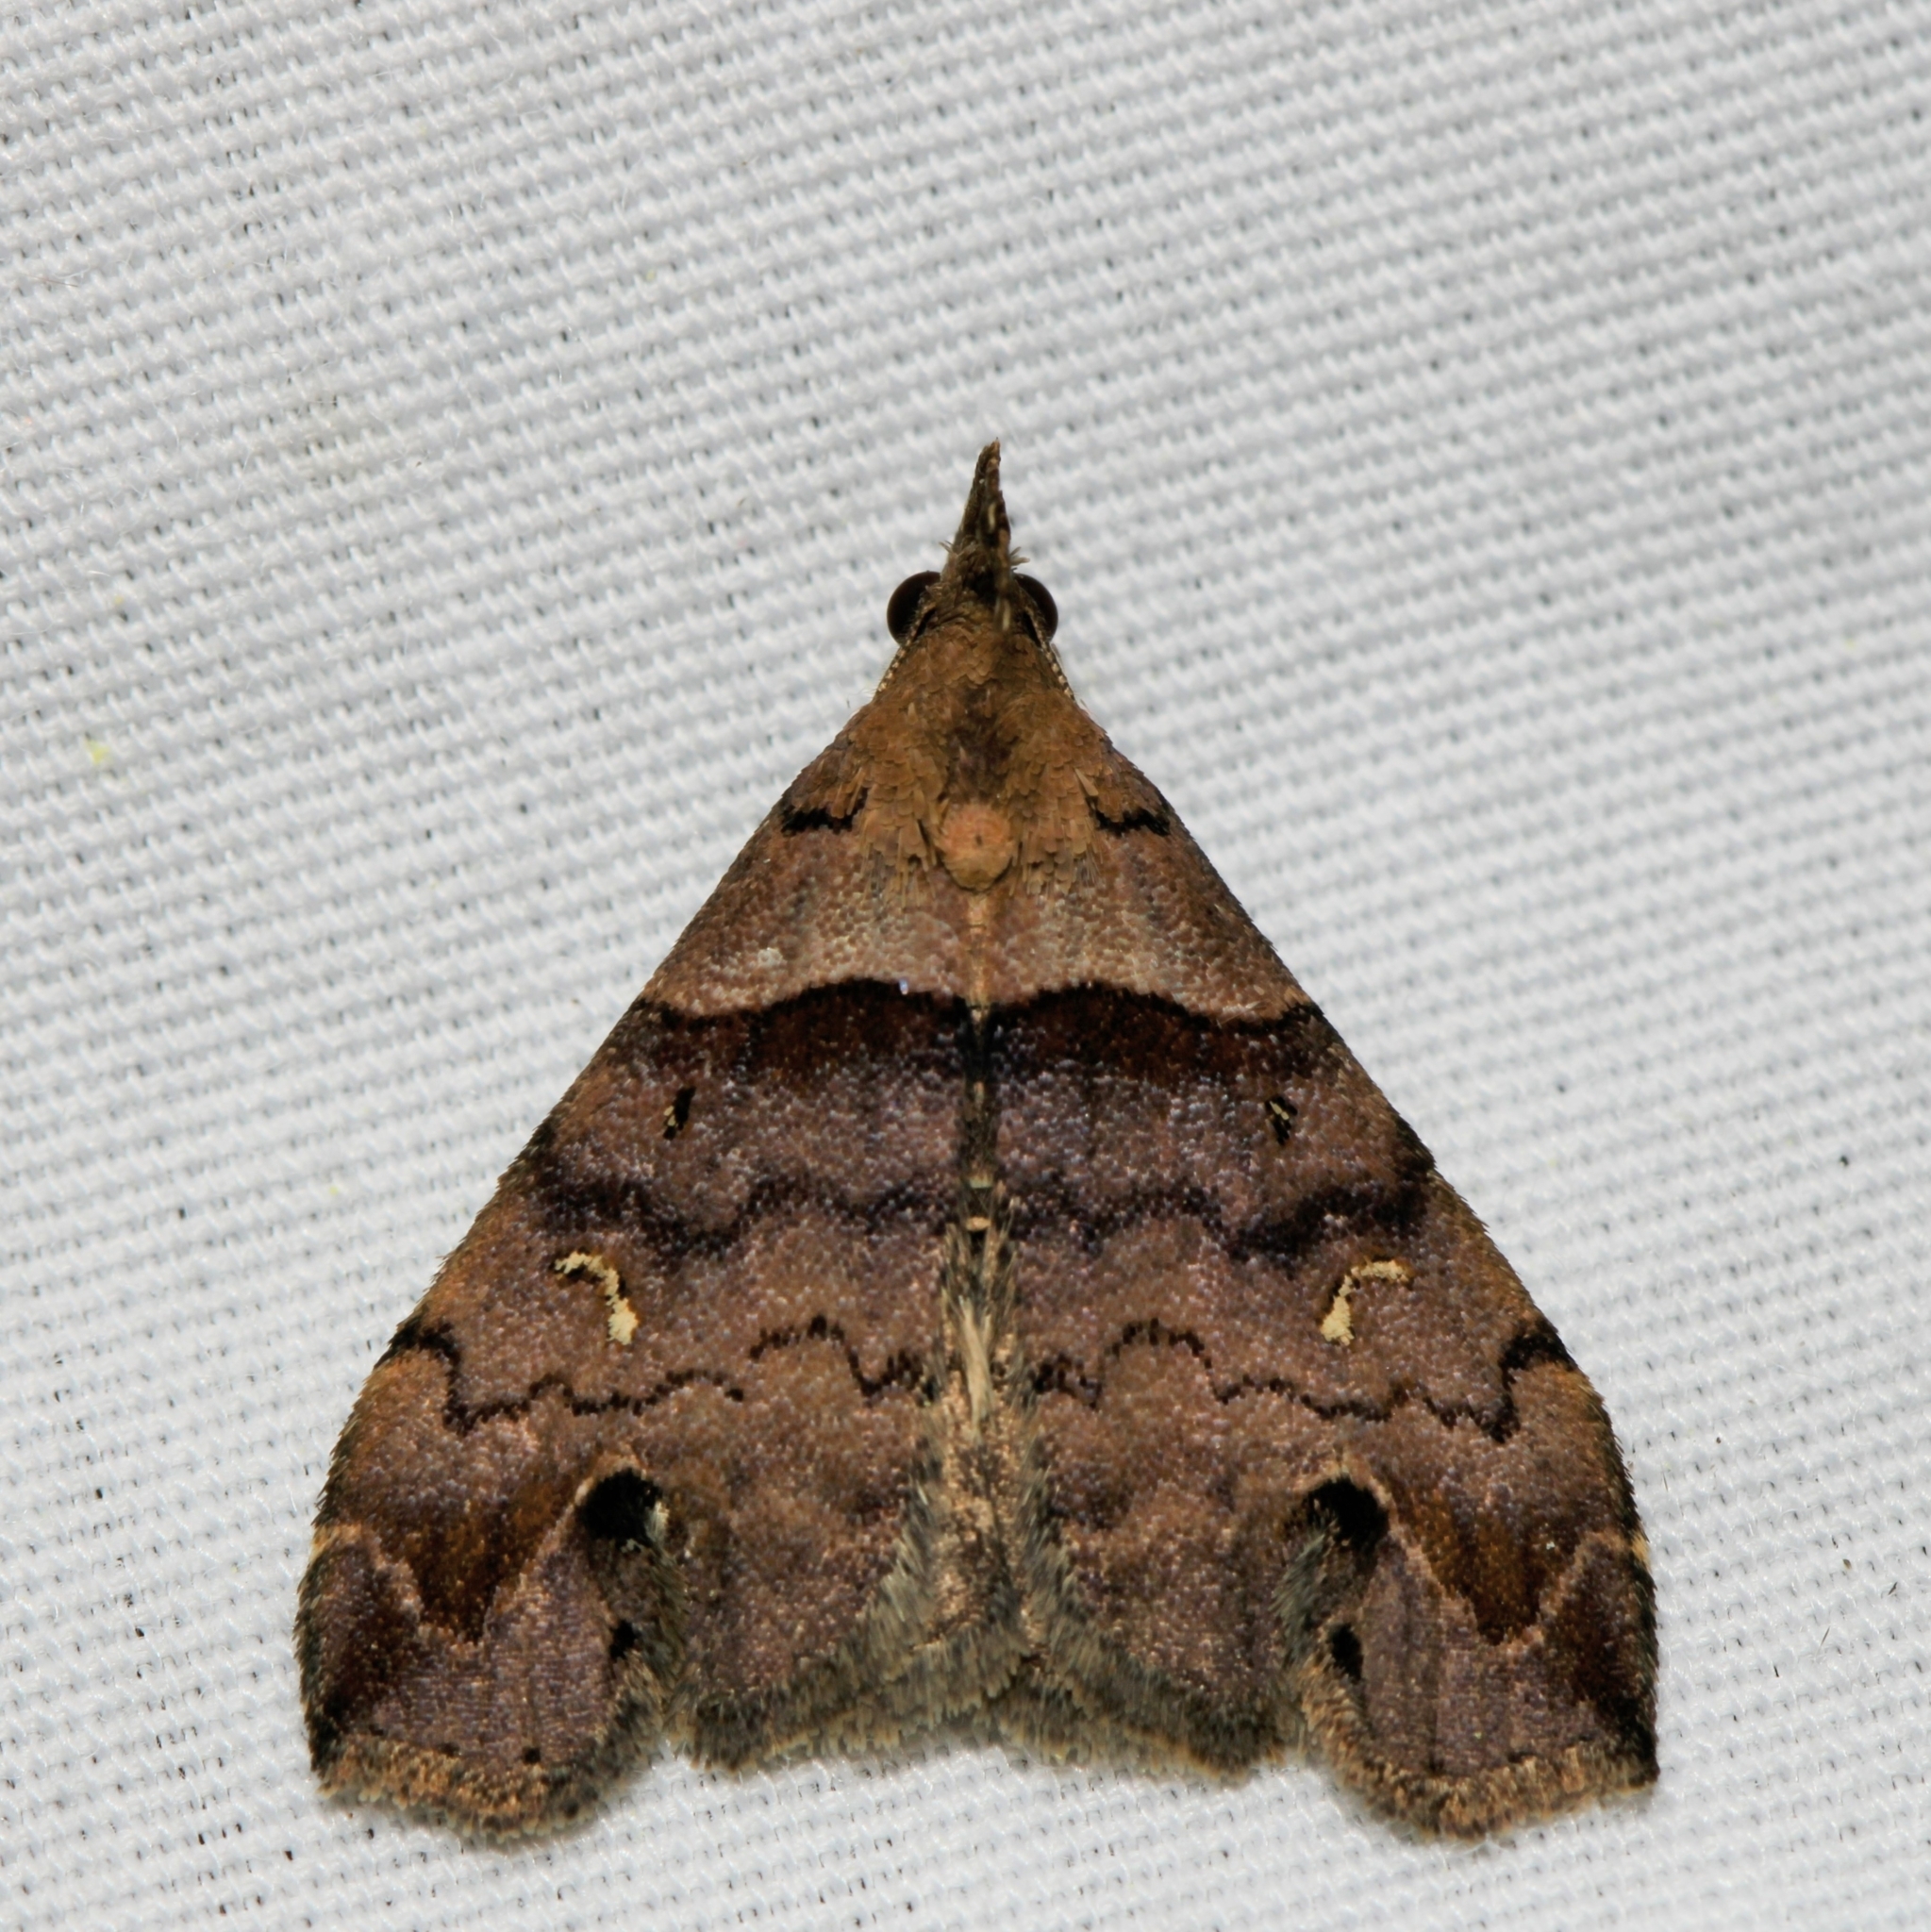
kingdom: Animalia
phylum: Arthropoda
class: Insecta
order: Lepidoptera
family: Erebidae
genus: Lascoria
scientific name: Lascoria ambigualis
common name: Ambiguous moth
